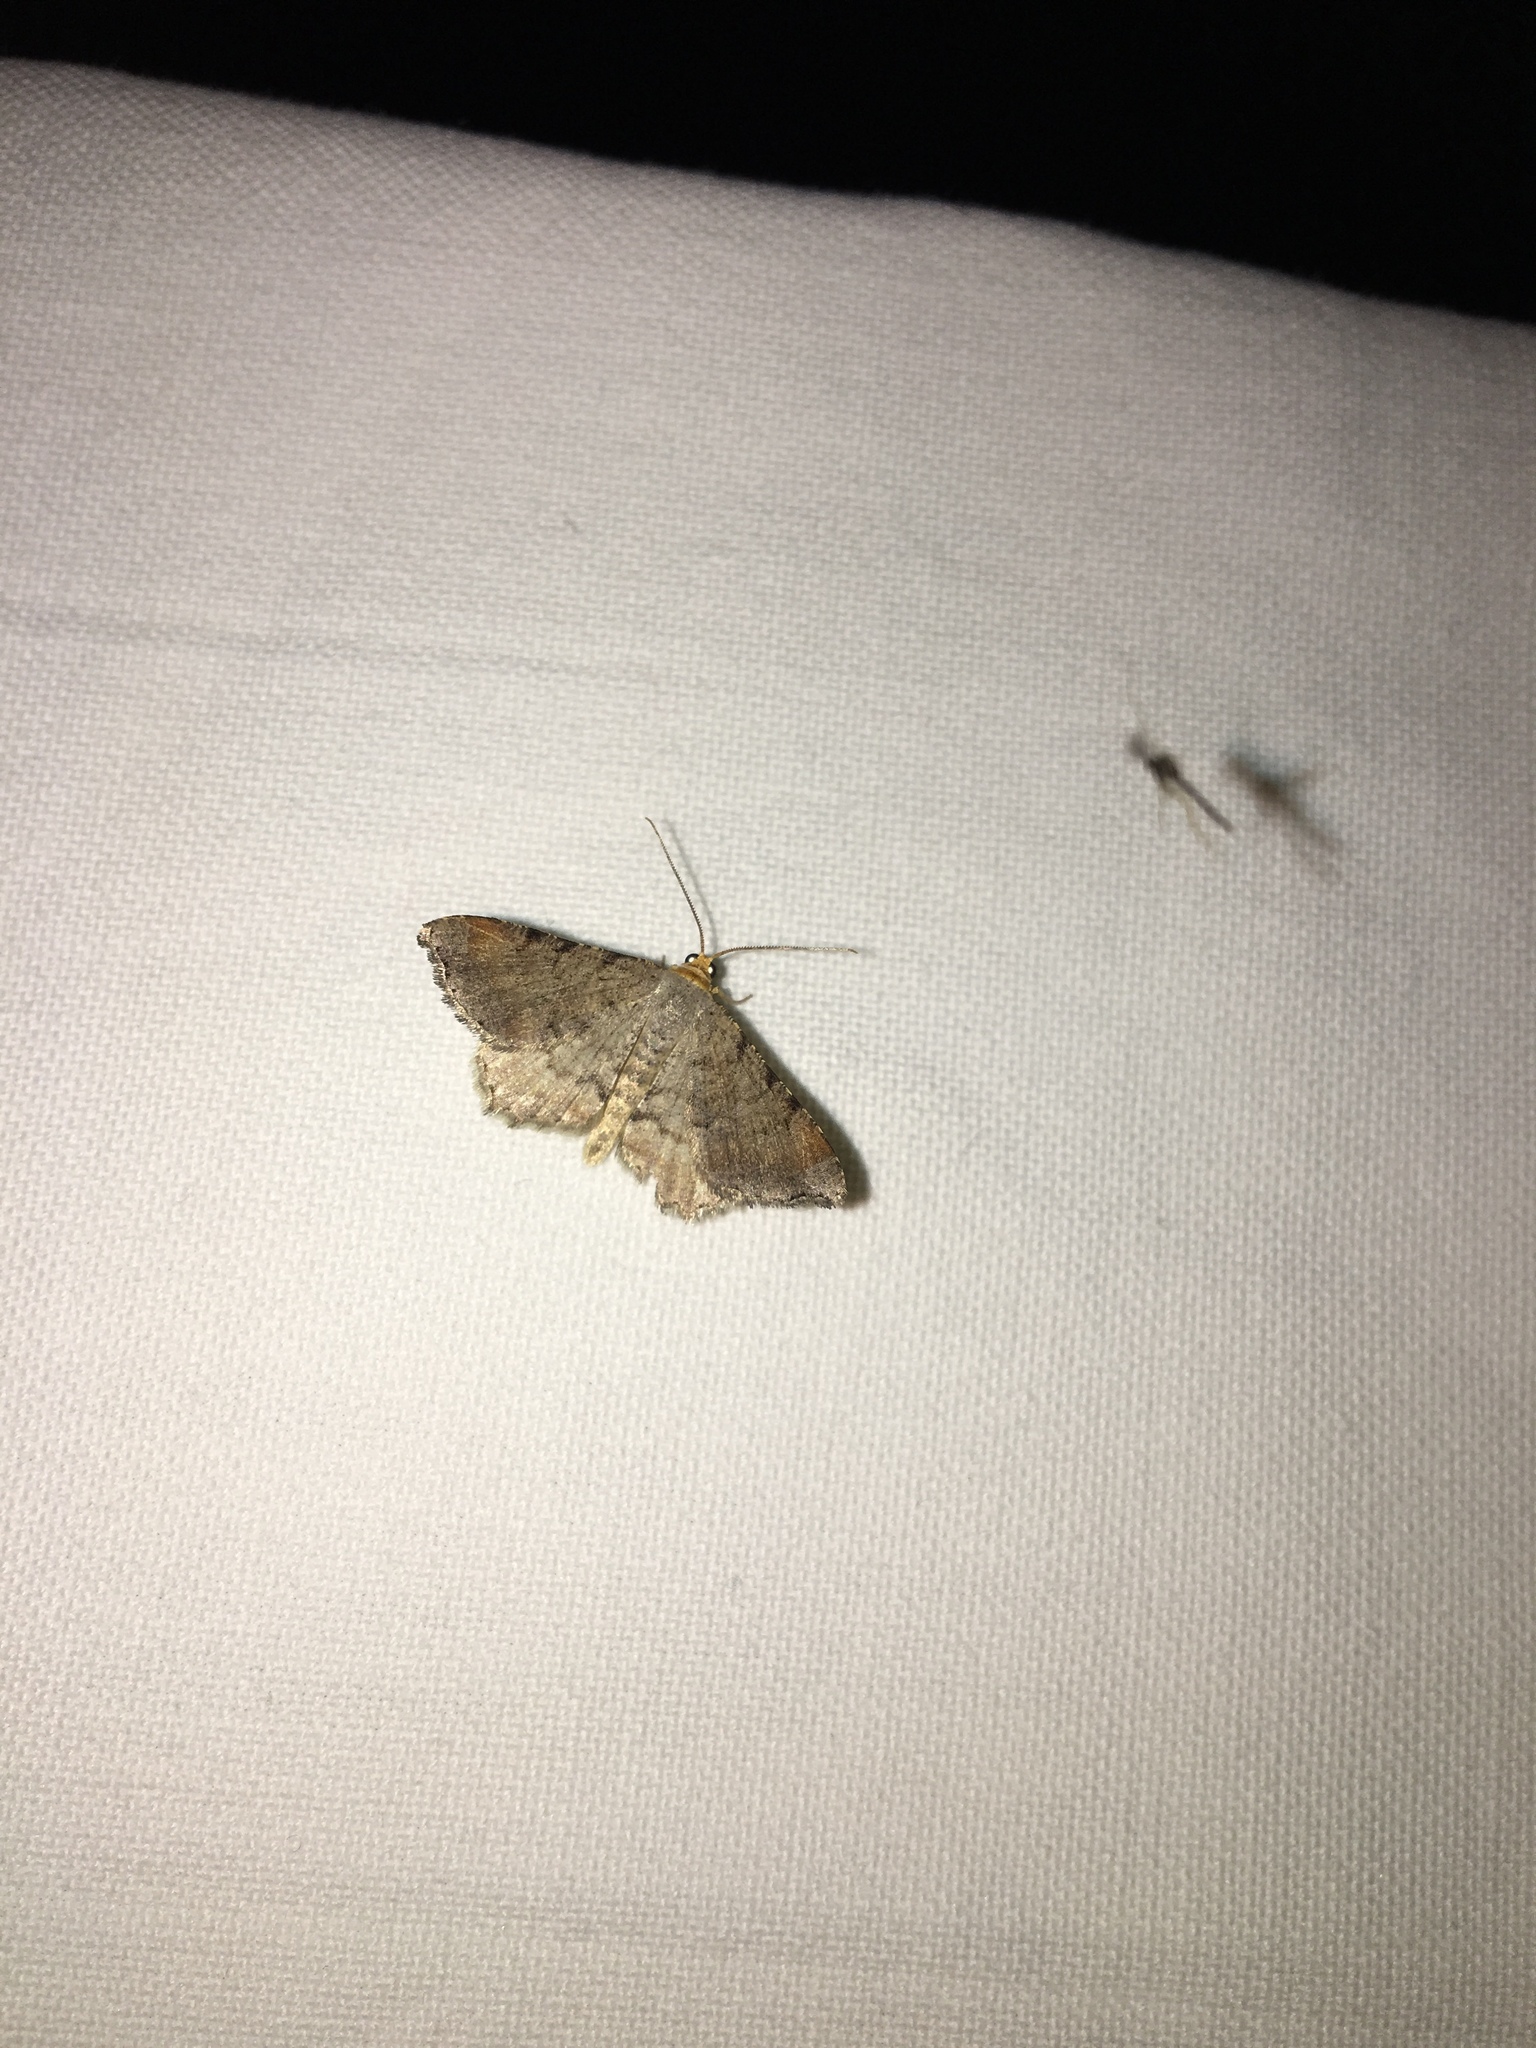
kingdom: Animalia
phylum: Arthropoda
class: Insecta
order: Lepidoptera
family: Geometridae
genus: Macaria
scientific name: Macaria minorata
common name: Minor angle moth
